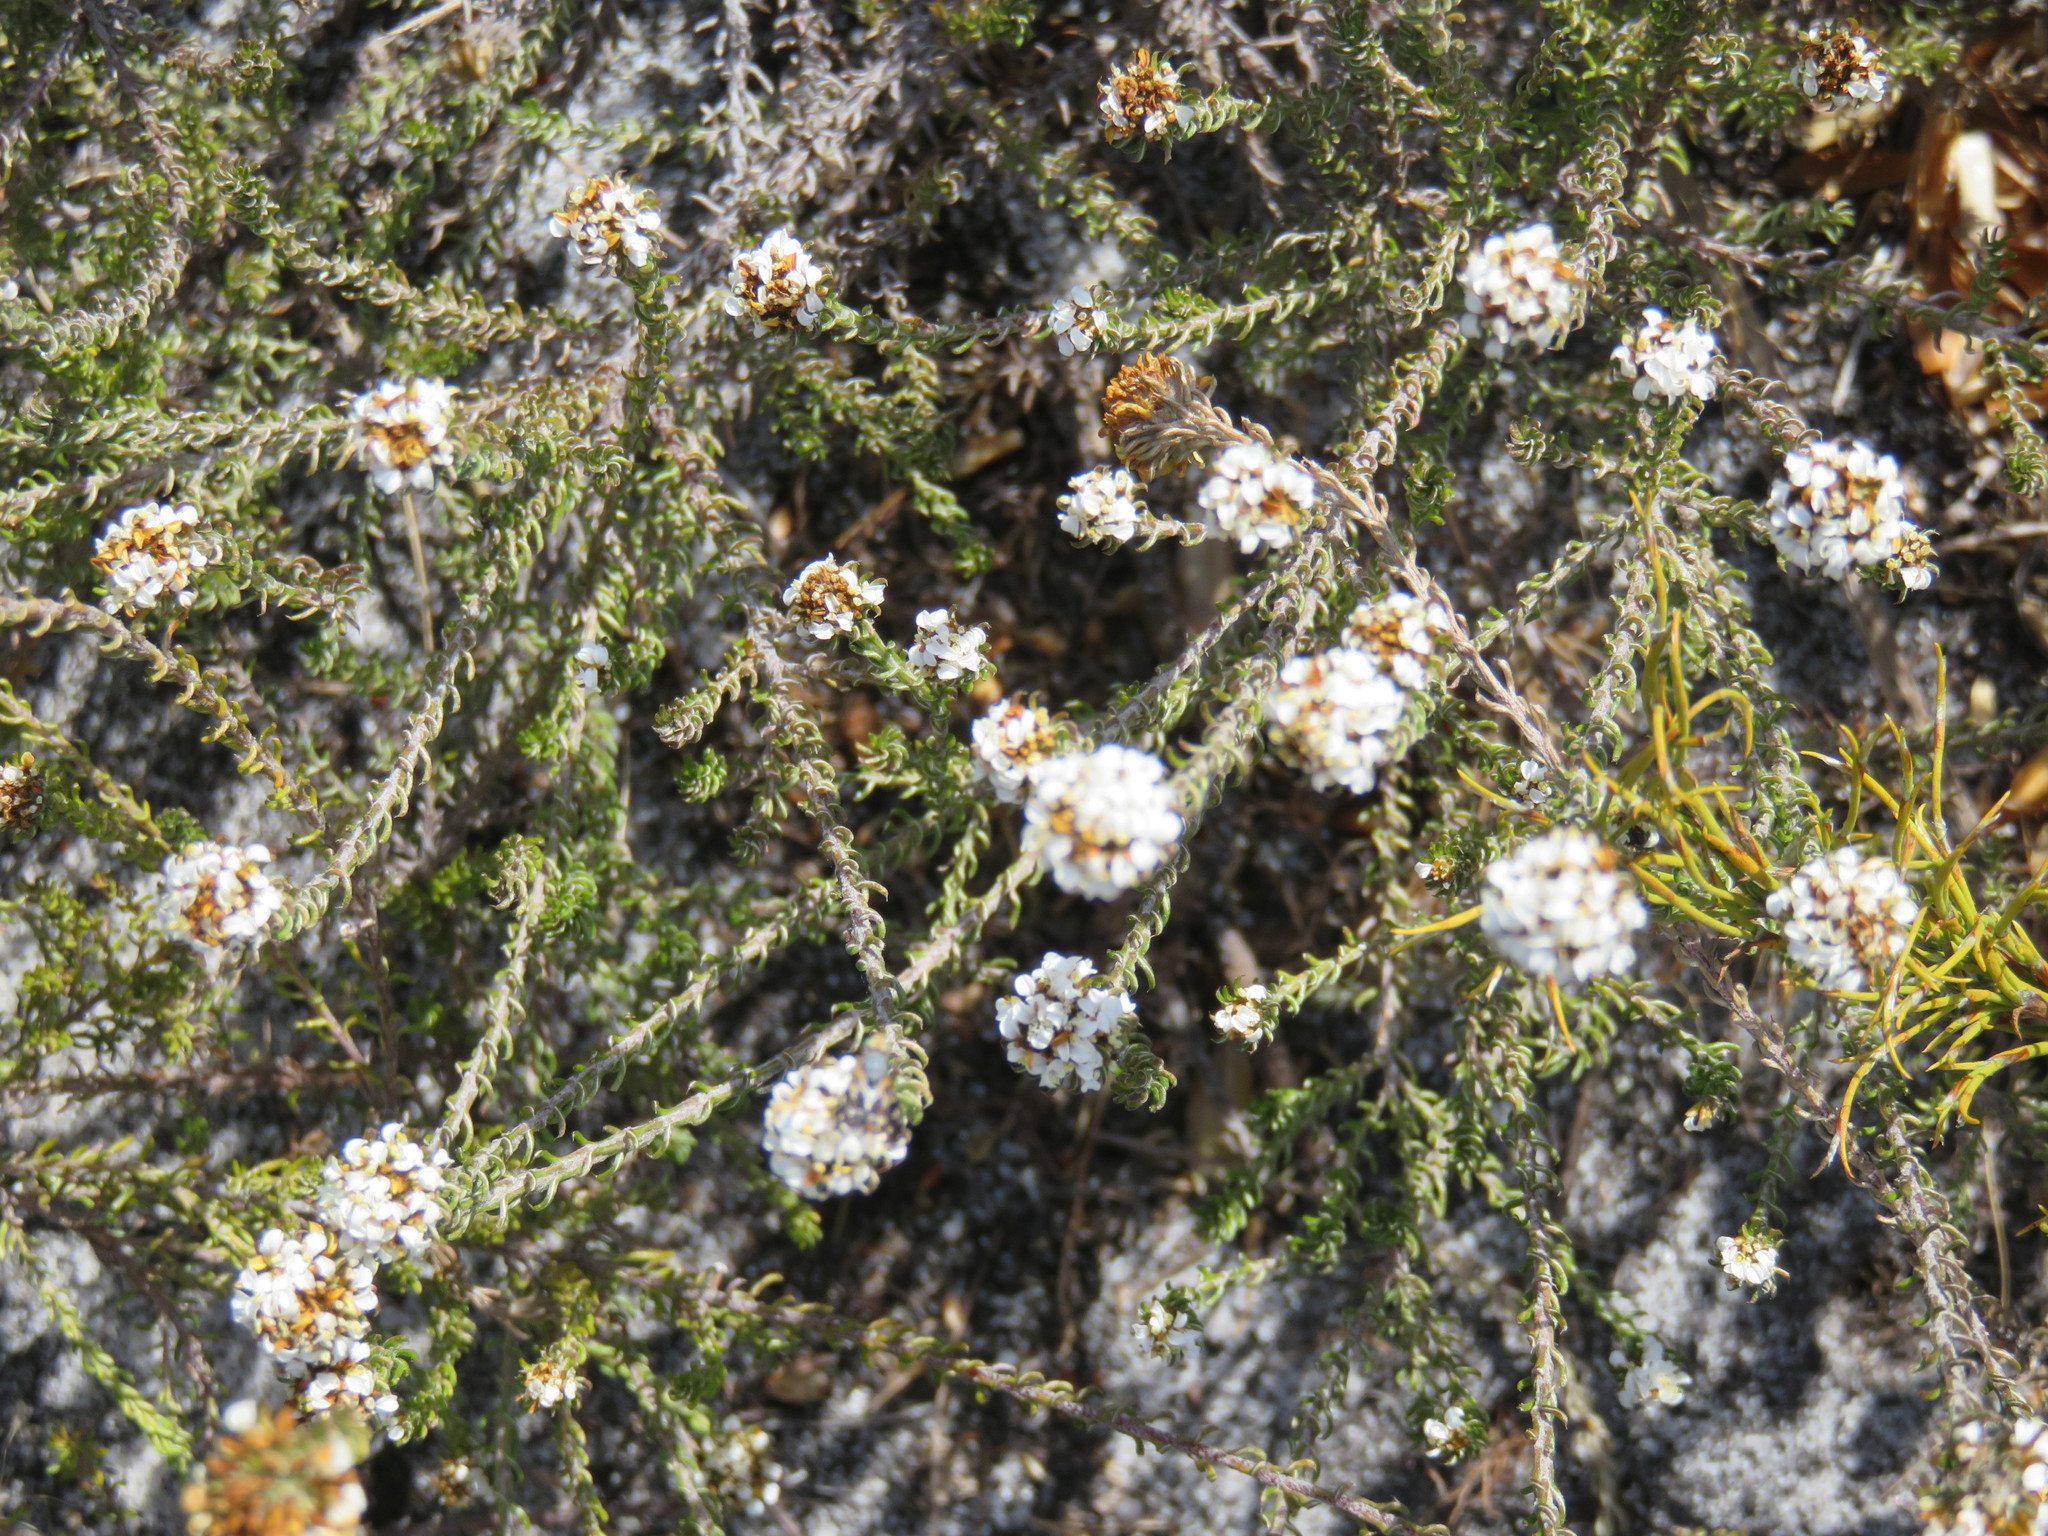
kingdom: Plantae
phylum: Tracheophyta
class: Magnoliopsida
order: Asterales
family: Asteraceae
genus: Disparago
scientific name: Disparago anomala
